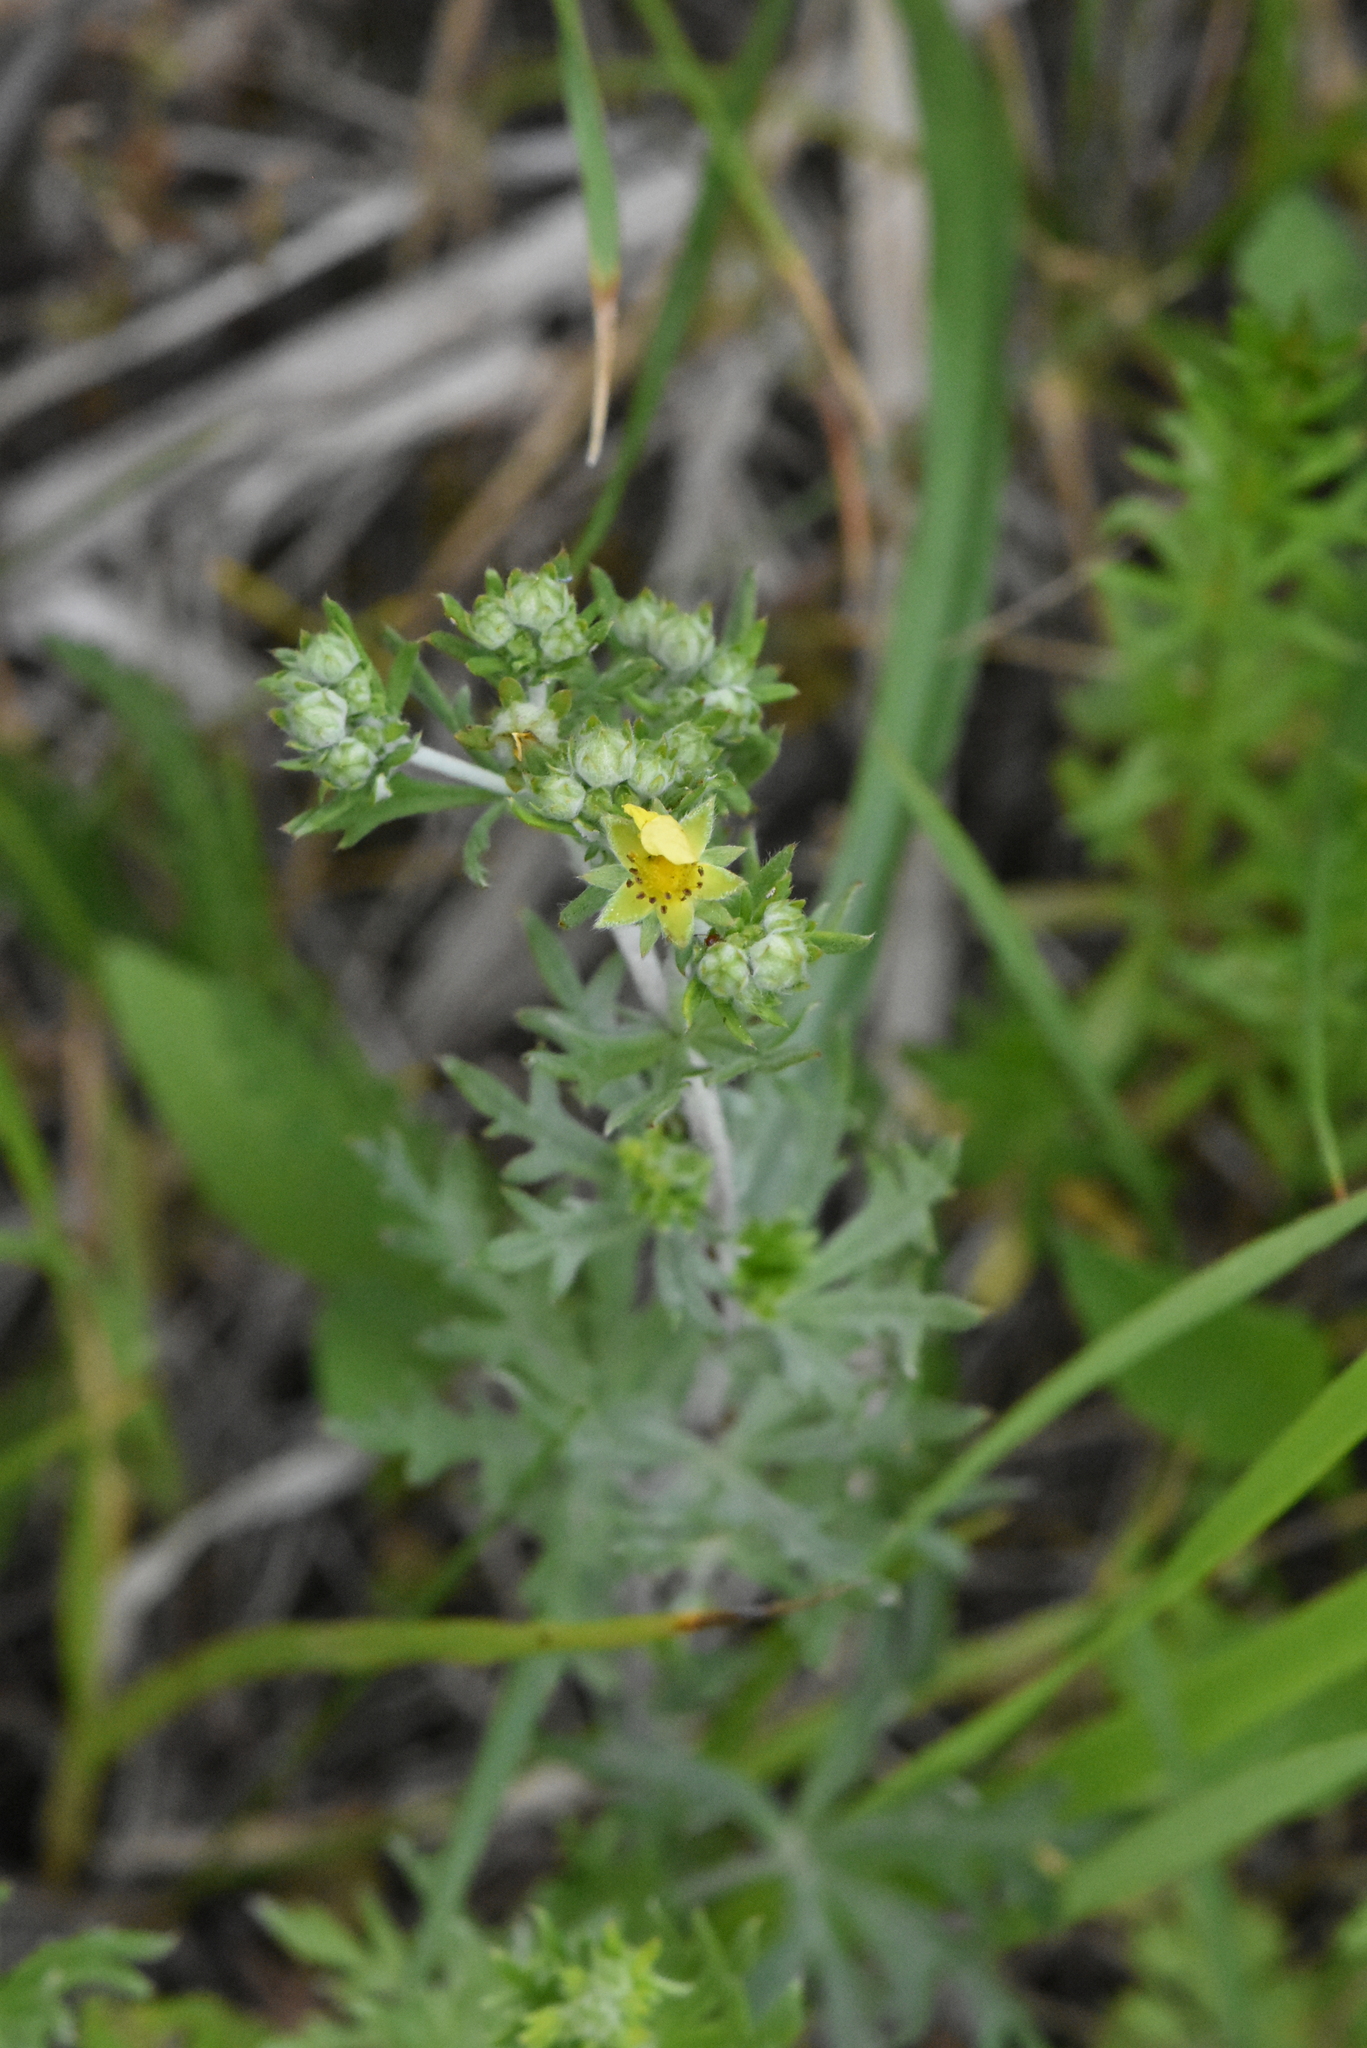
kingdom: Plantae
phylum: Tracheophyta
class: Magnoliopsida
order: Rosales
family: Rosaceae
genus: Potentilla
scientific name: Potentilla argentea
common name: Hoary cinquefoil
